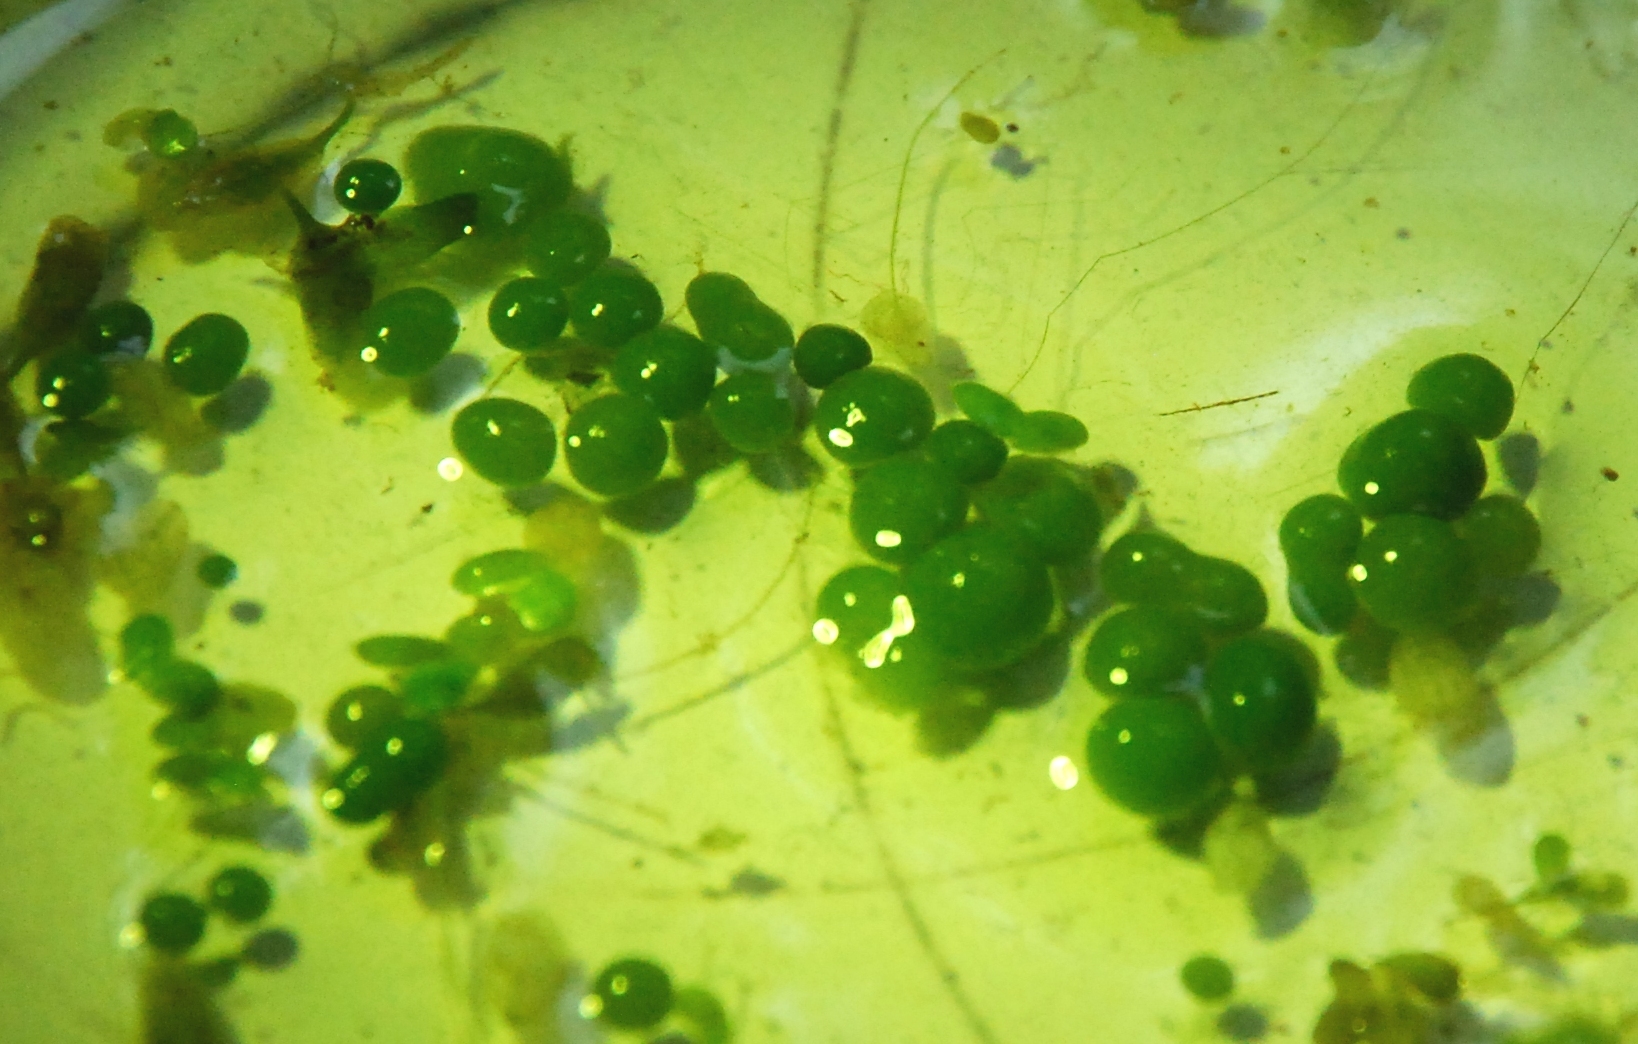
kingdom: Bacteria
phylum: Cyanobacteria
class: Cyanobacteriia
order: Cyanobacteriales
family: Nostocaceae
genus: Nostoc
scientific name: Nostoc kihlmanii
